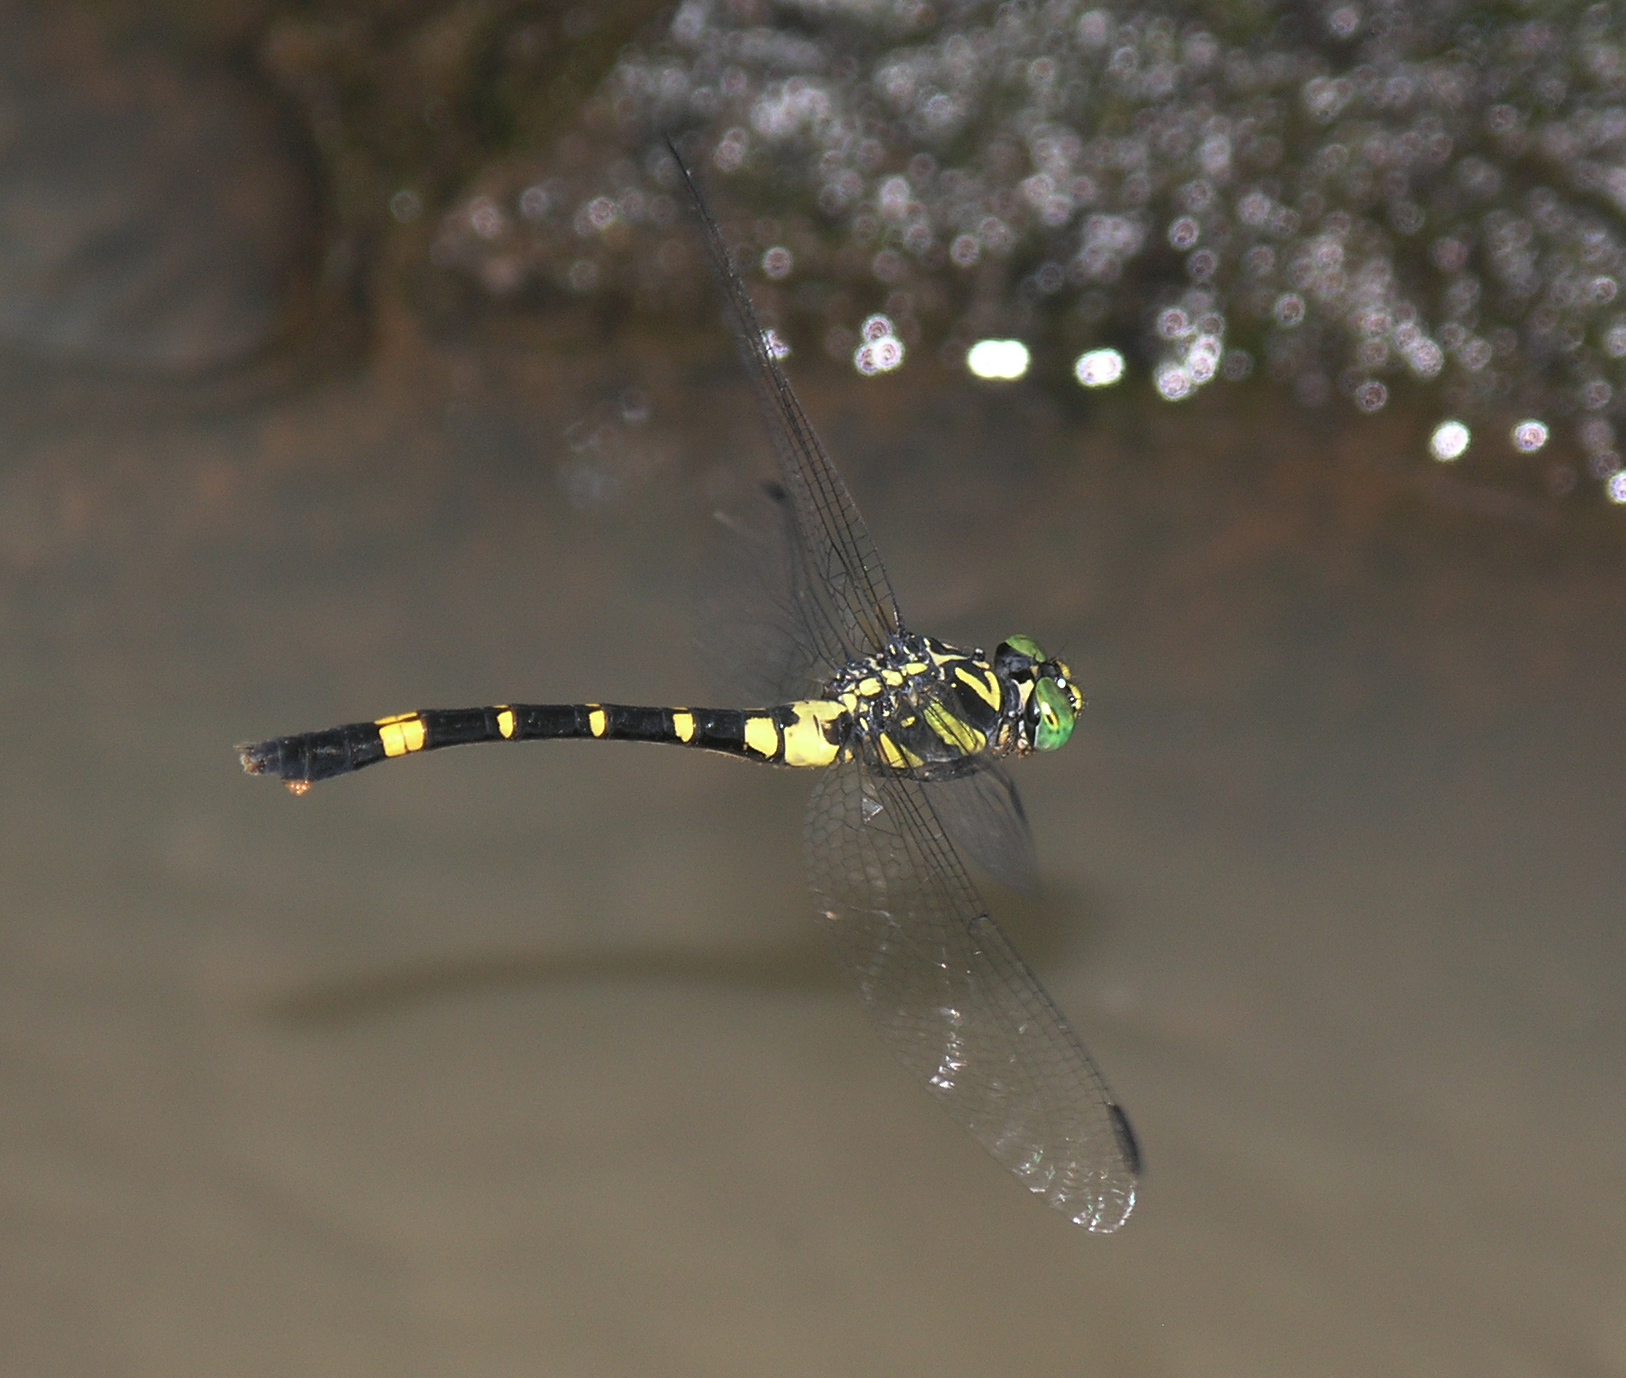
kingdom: Animalia
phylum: Arthropoda
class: Insecta
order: Odonata
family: Gomphidae
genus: Lamelligomphus
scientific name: Lamelligomphus castor
